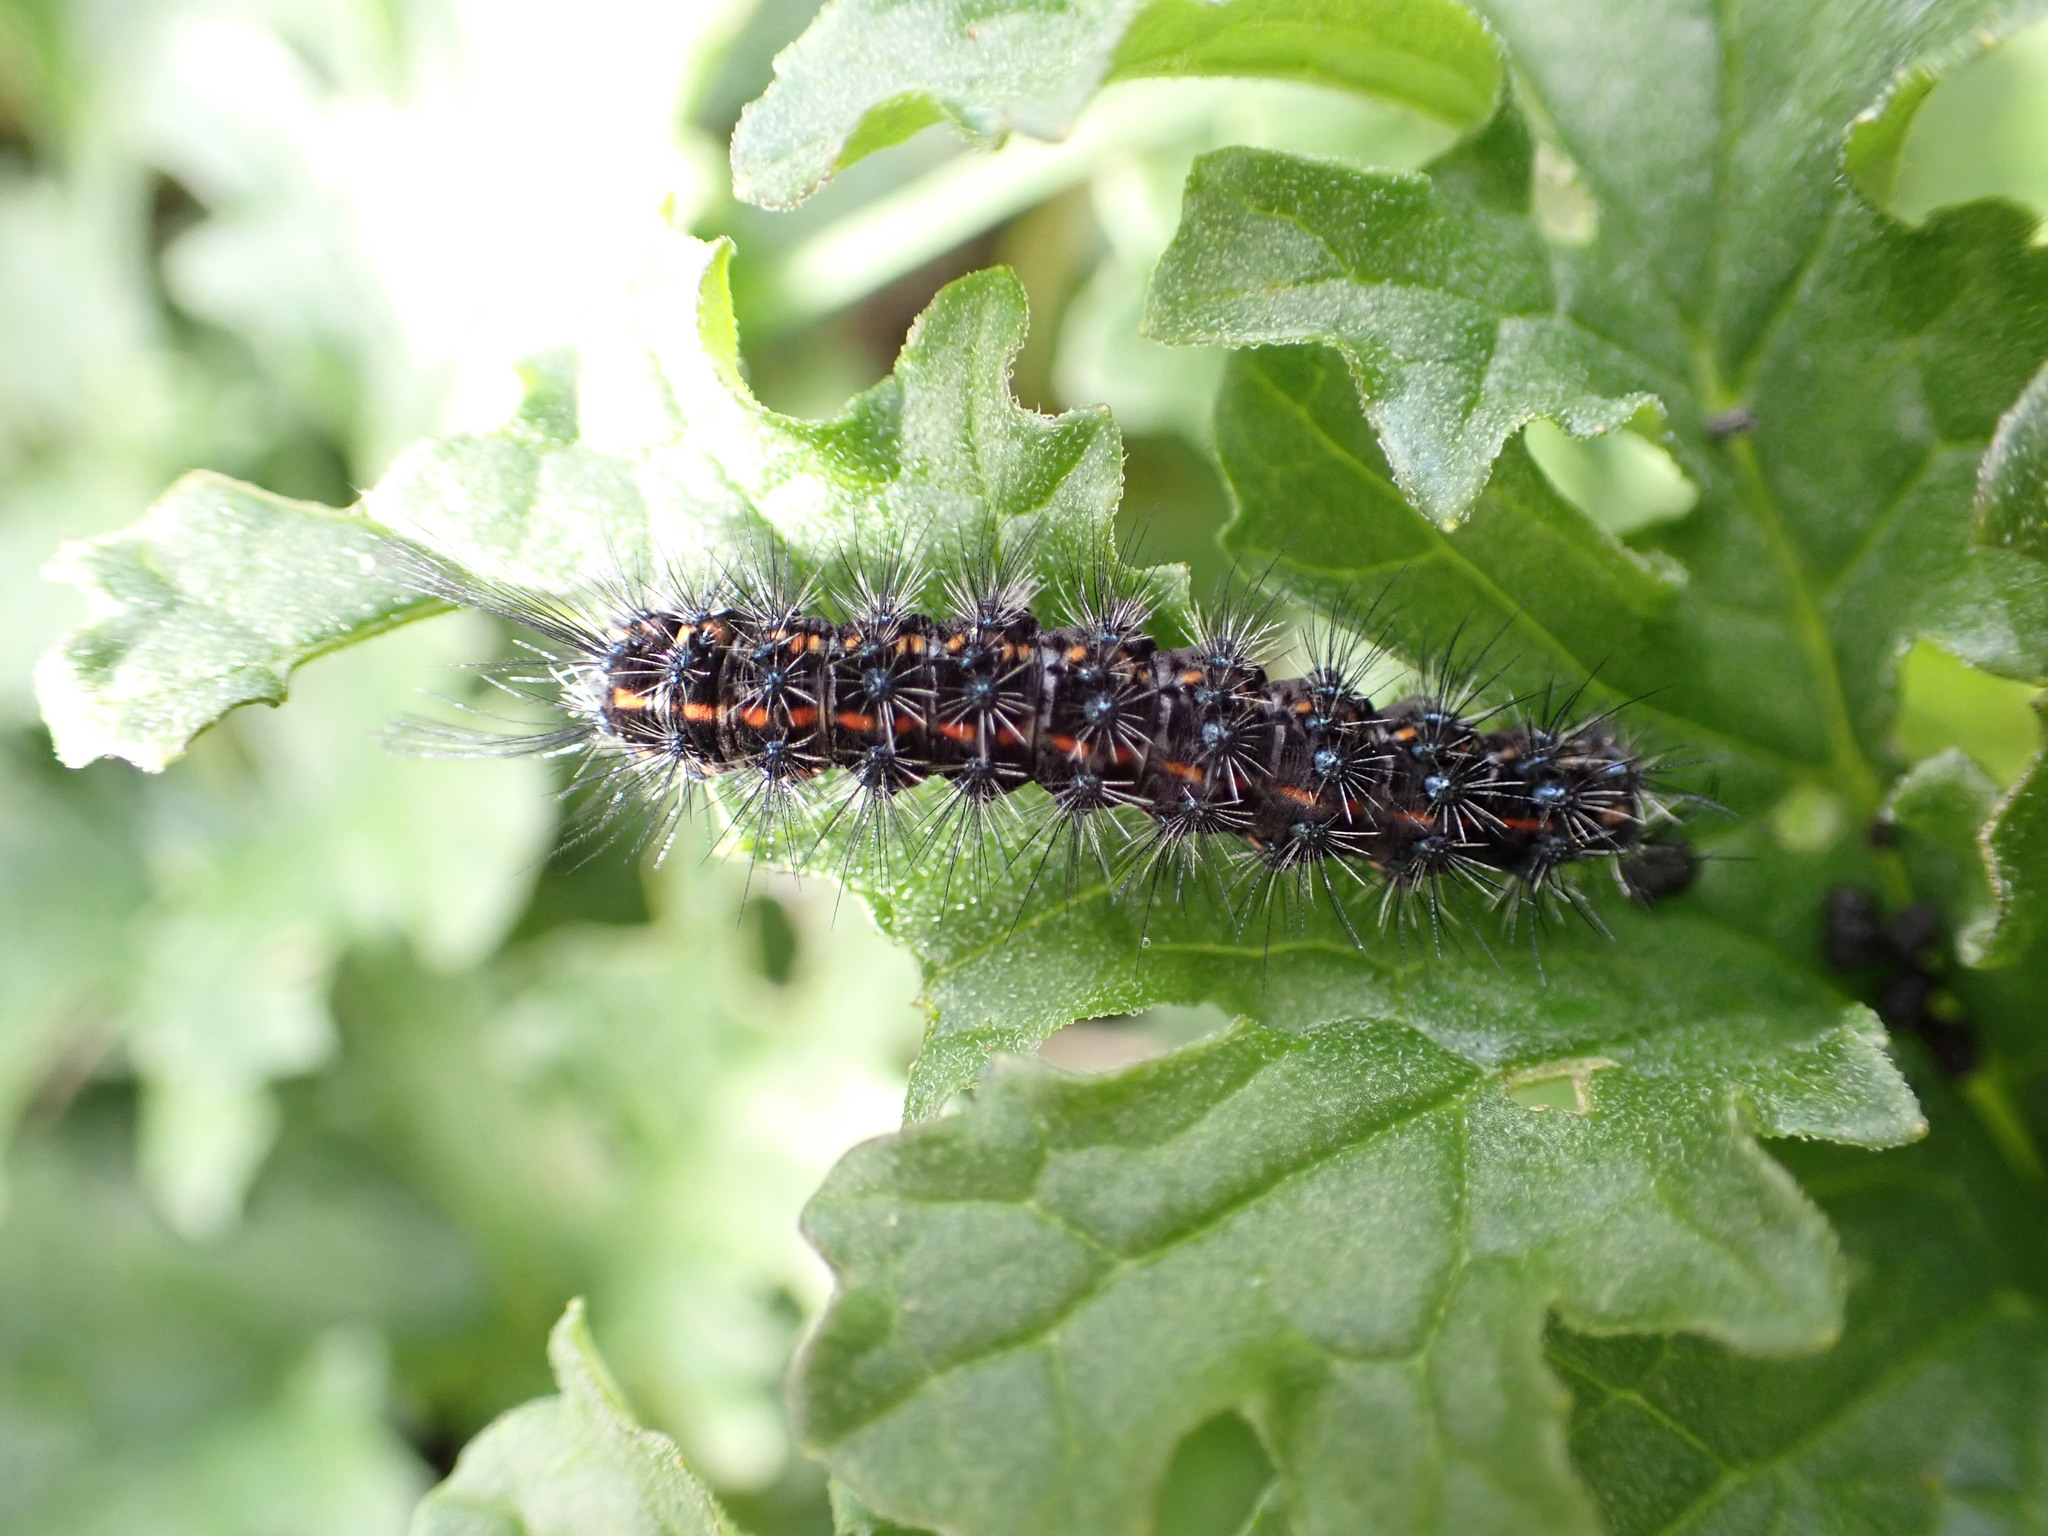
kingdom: Animalia
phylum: Arthropoda
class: Insecta
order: Lepidoptera
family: Erebidae
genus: Nyctemera
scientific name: Nyctemera
